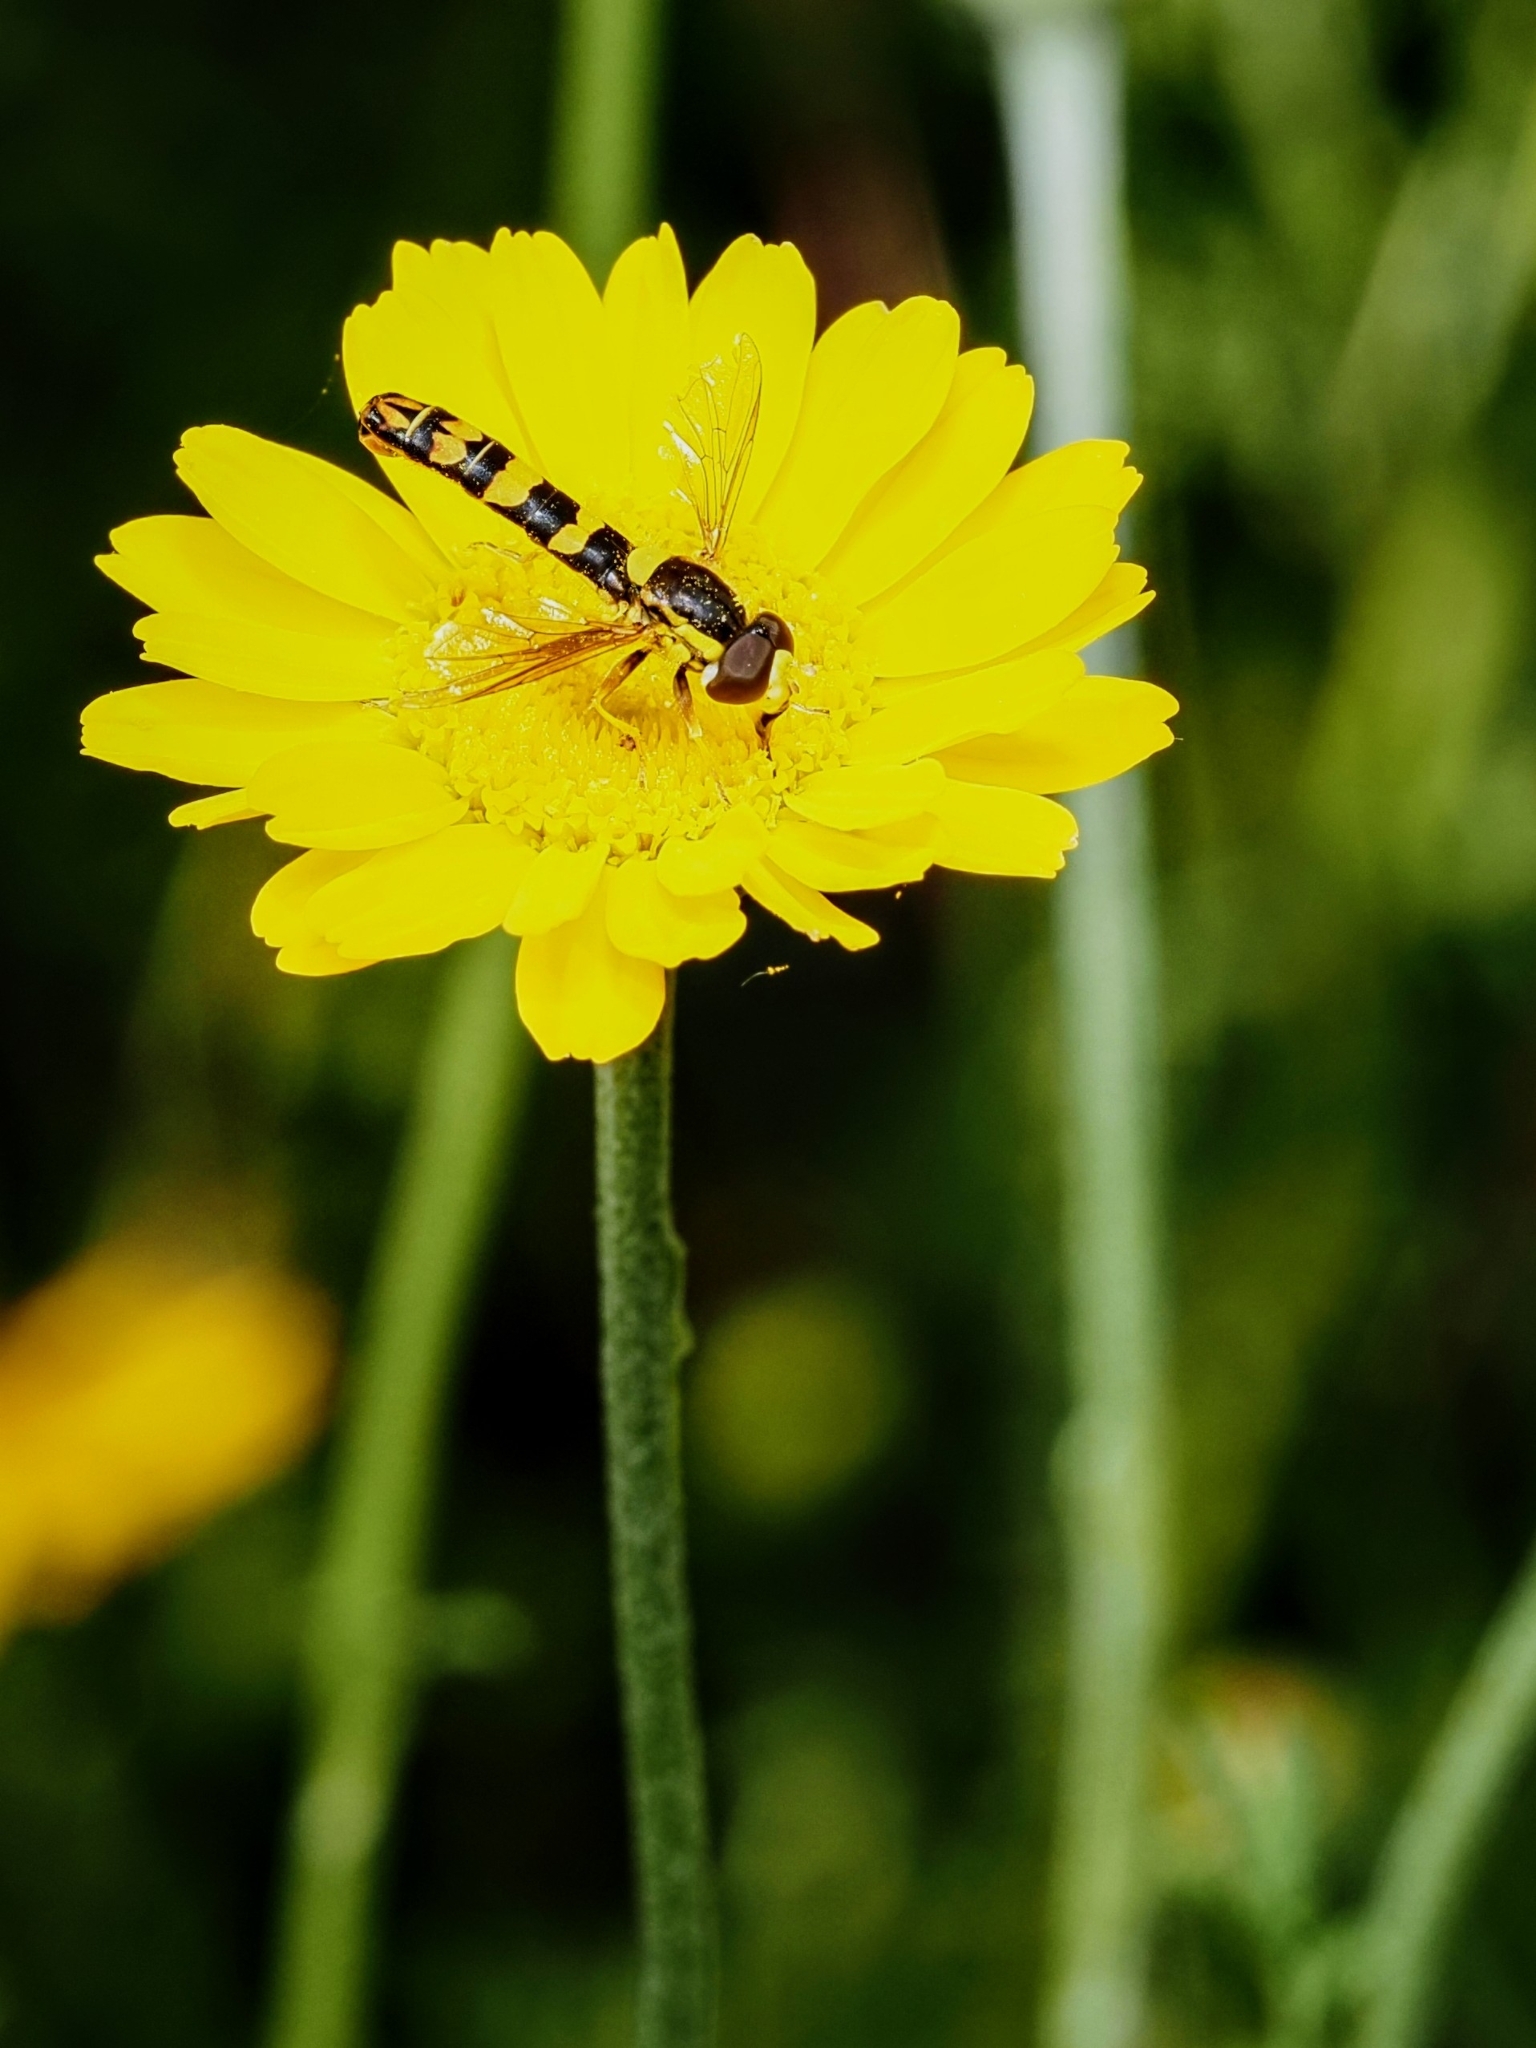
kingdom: Animalia
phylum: Arthropoda
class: Insecta
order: Diptera
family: Syrphidae
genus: Sphaerophoria
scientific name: Sphaerophoria scripta
